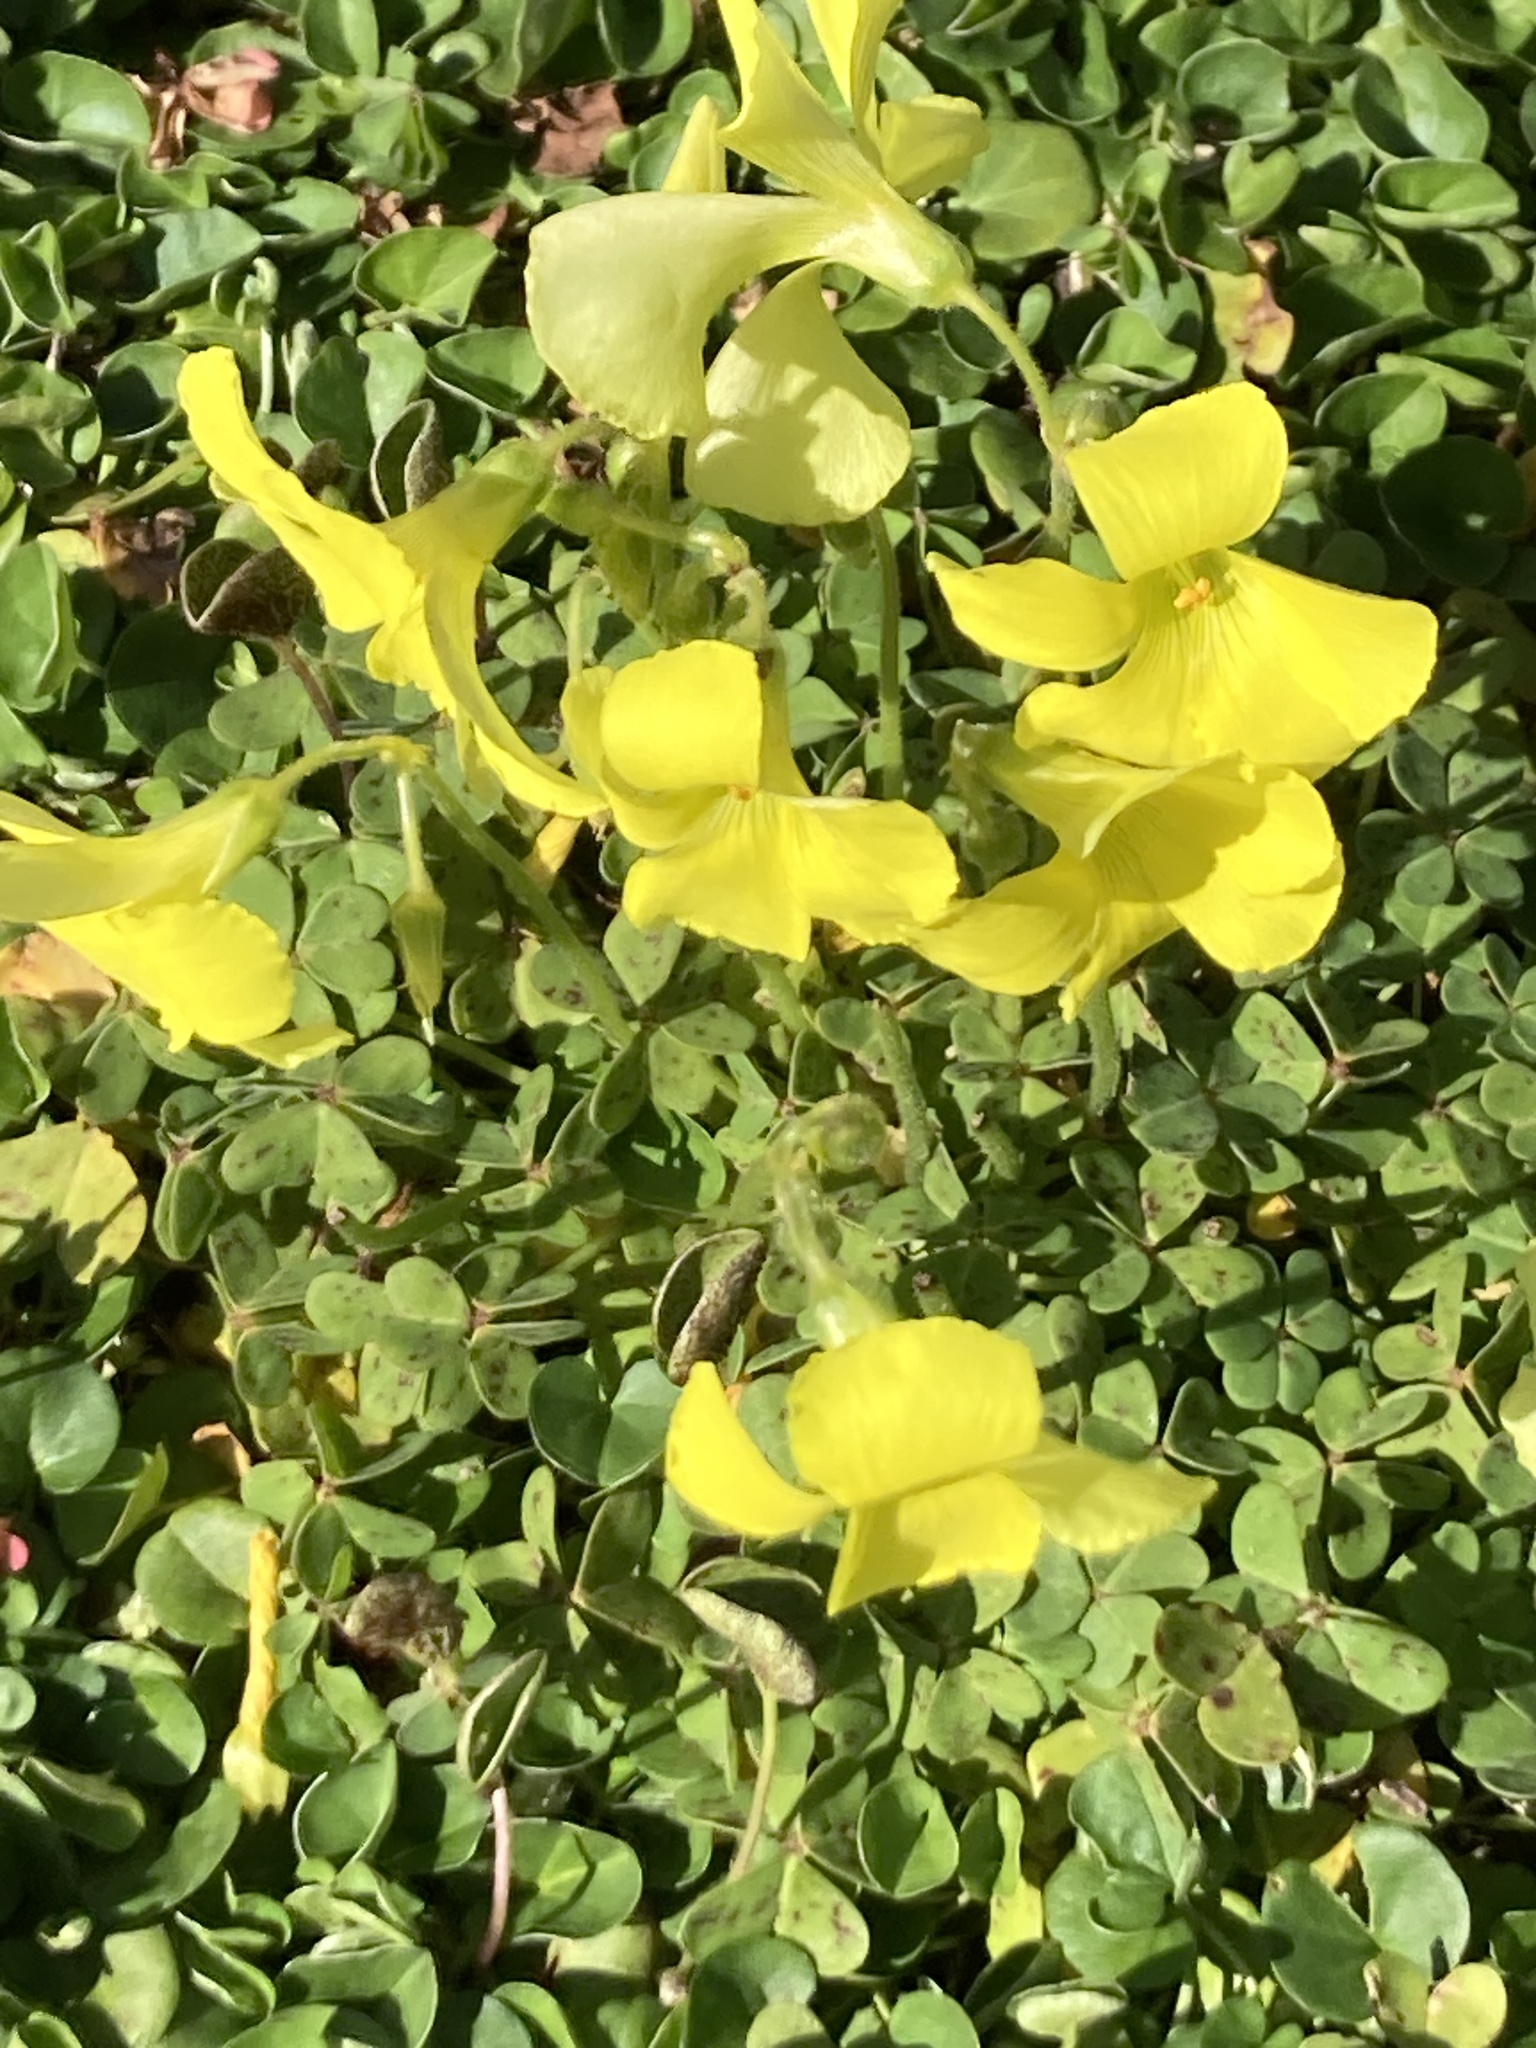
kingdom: Plantae
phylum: Tracheophyta
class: Magnoliopsida
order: Oxalidales
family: Oxalidaceae
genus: Oxalis
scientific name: Oxalis pes-caprae
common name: Bermuda-buttercup
